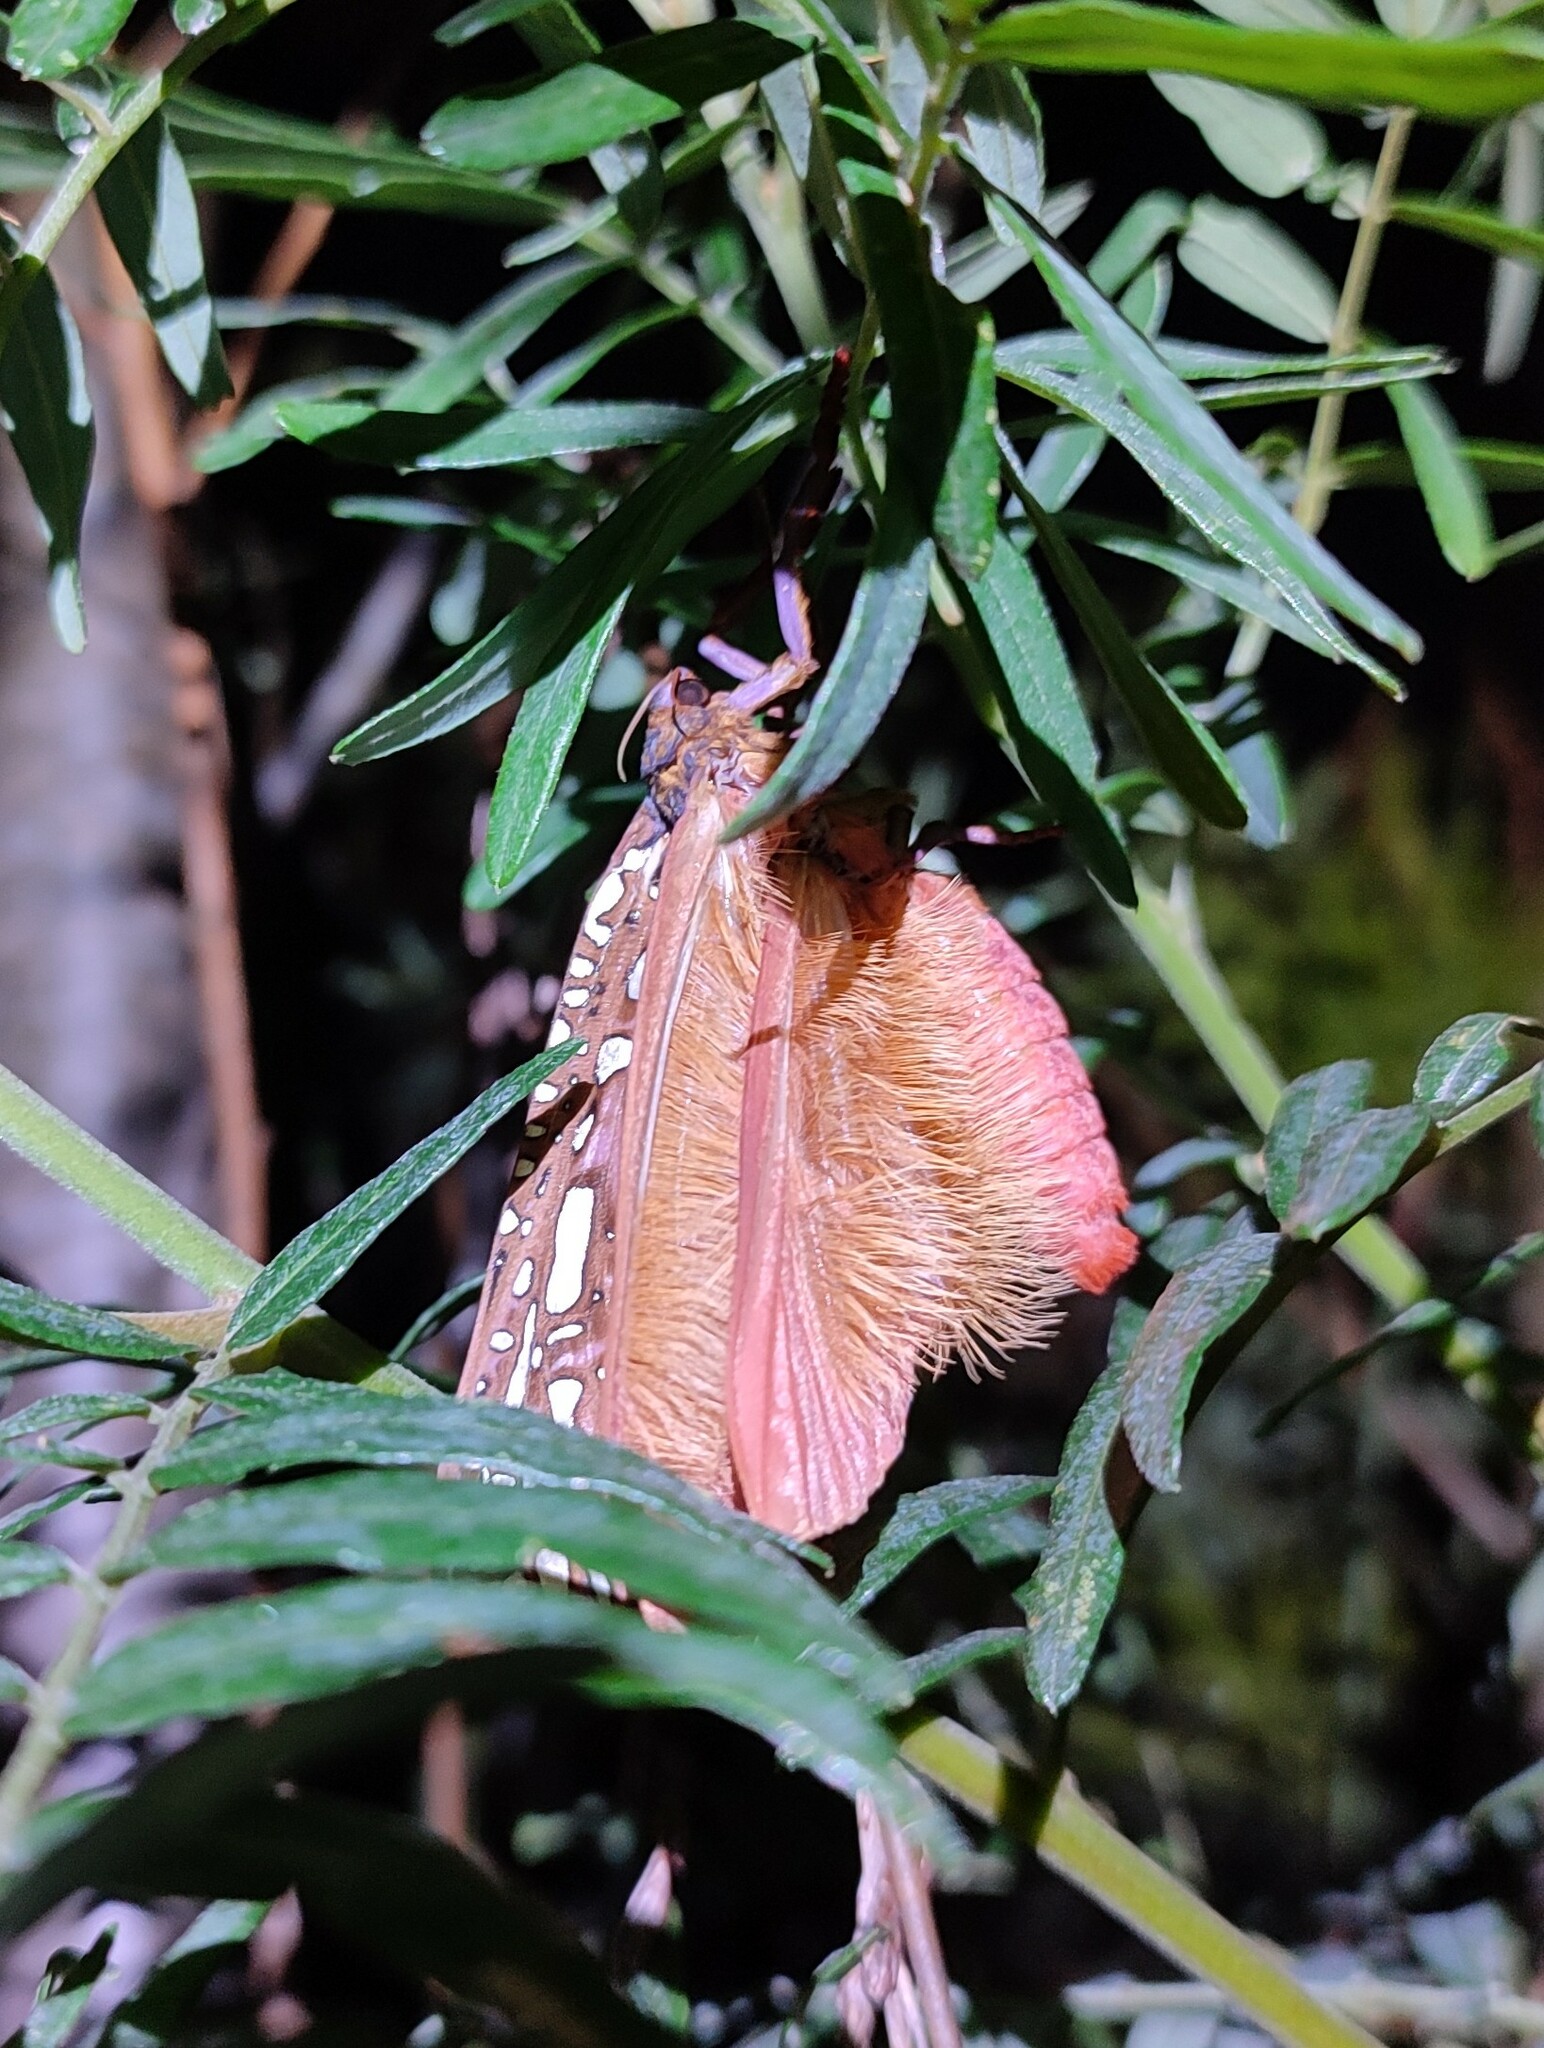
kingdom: Animalia
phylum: Arthropoda
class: Insecta
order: Lepidoptera
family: Hepialidae
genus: Leto
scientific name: Leto venus
